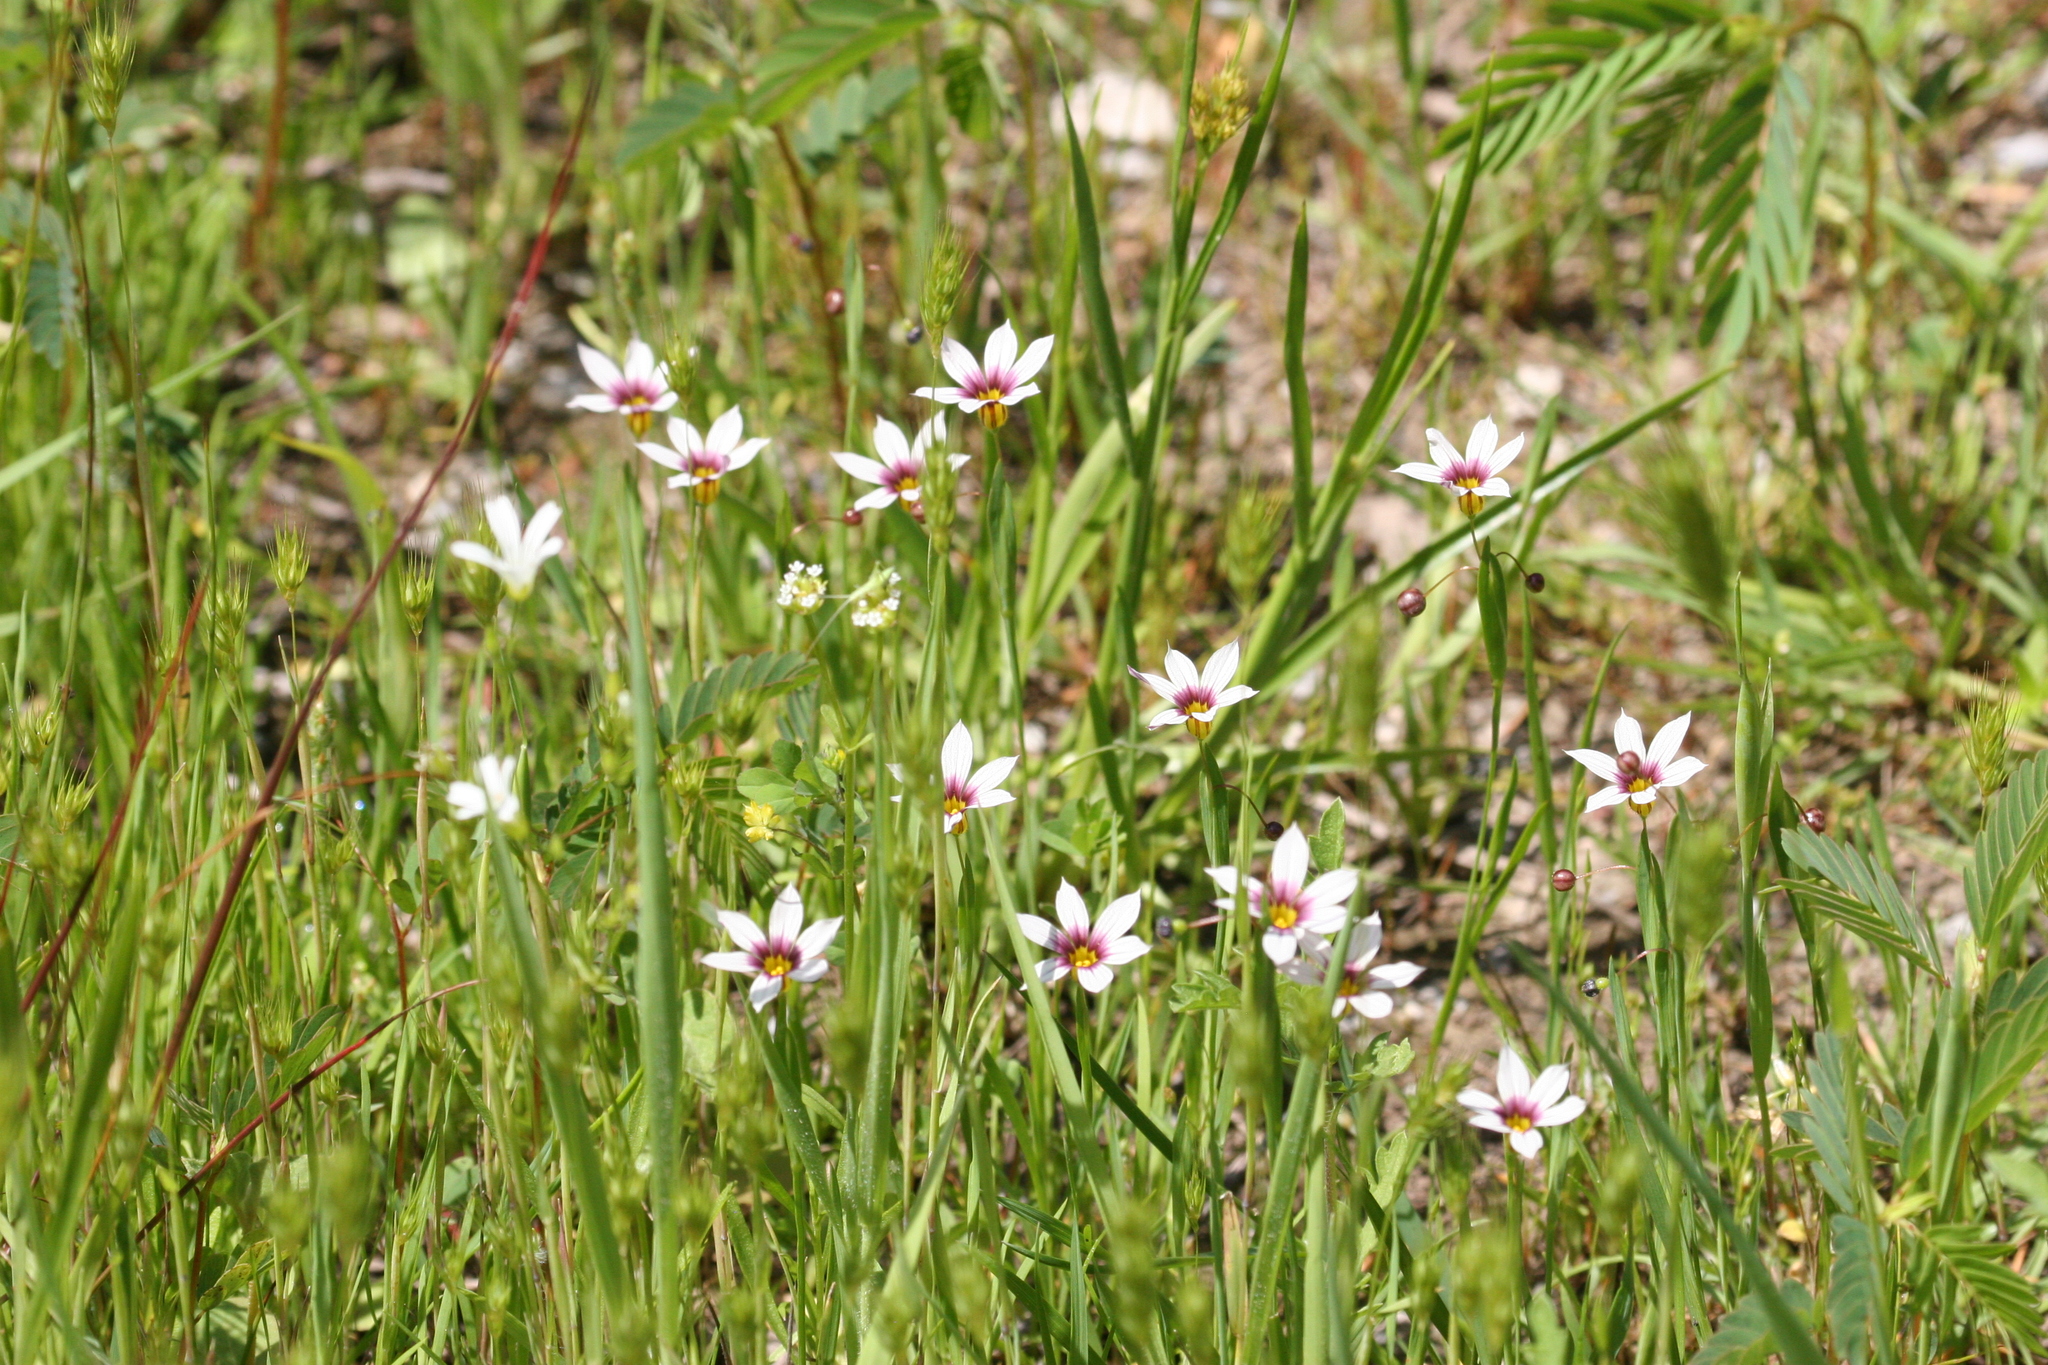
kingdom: Plantae
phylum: Tracheophyta
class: Liliopsida
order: Asparagales
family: Iridaceae
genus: Sisyrinchium
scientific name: Sisyrinchium micranthum
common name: Bermuda pigroot
